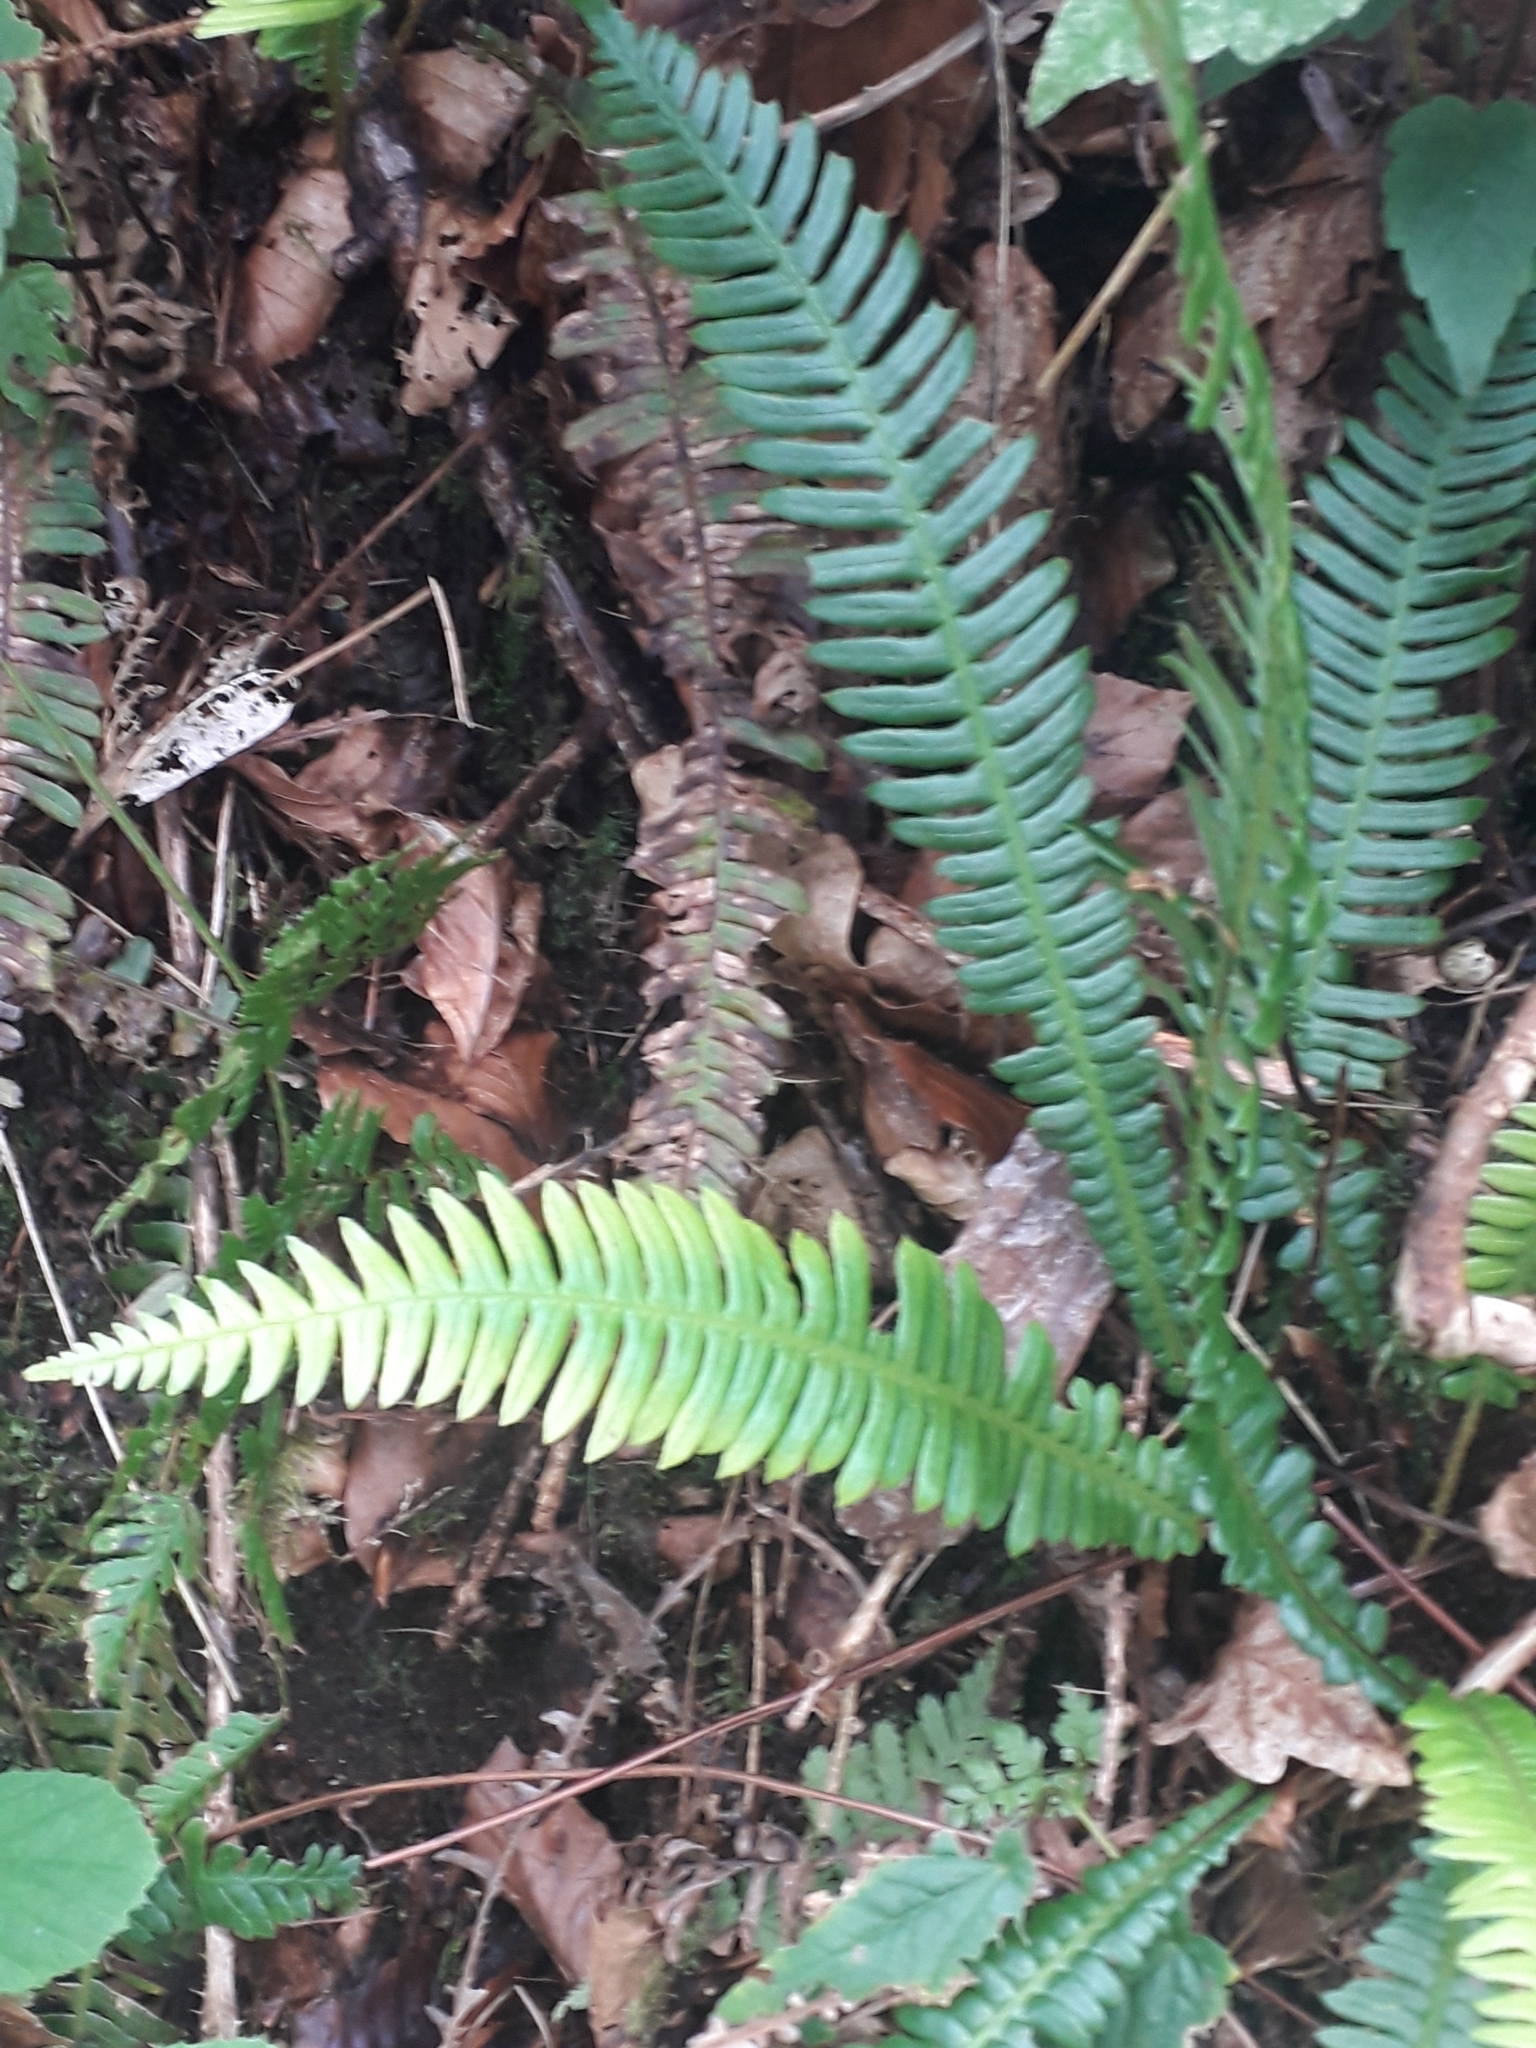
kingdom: Plantae
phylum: Tracheophyta
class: Polypodiopsida
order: Polypodiales
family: Blechnaceae
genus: Struthiopteris
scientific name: Struthiopteris spicant
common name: Deer fern
